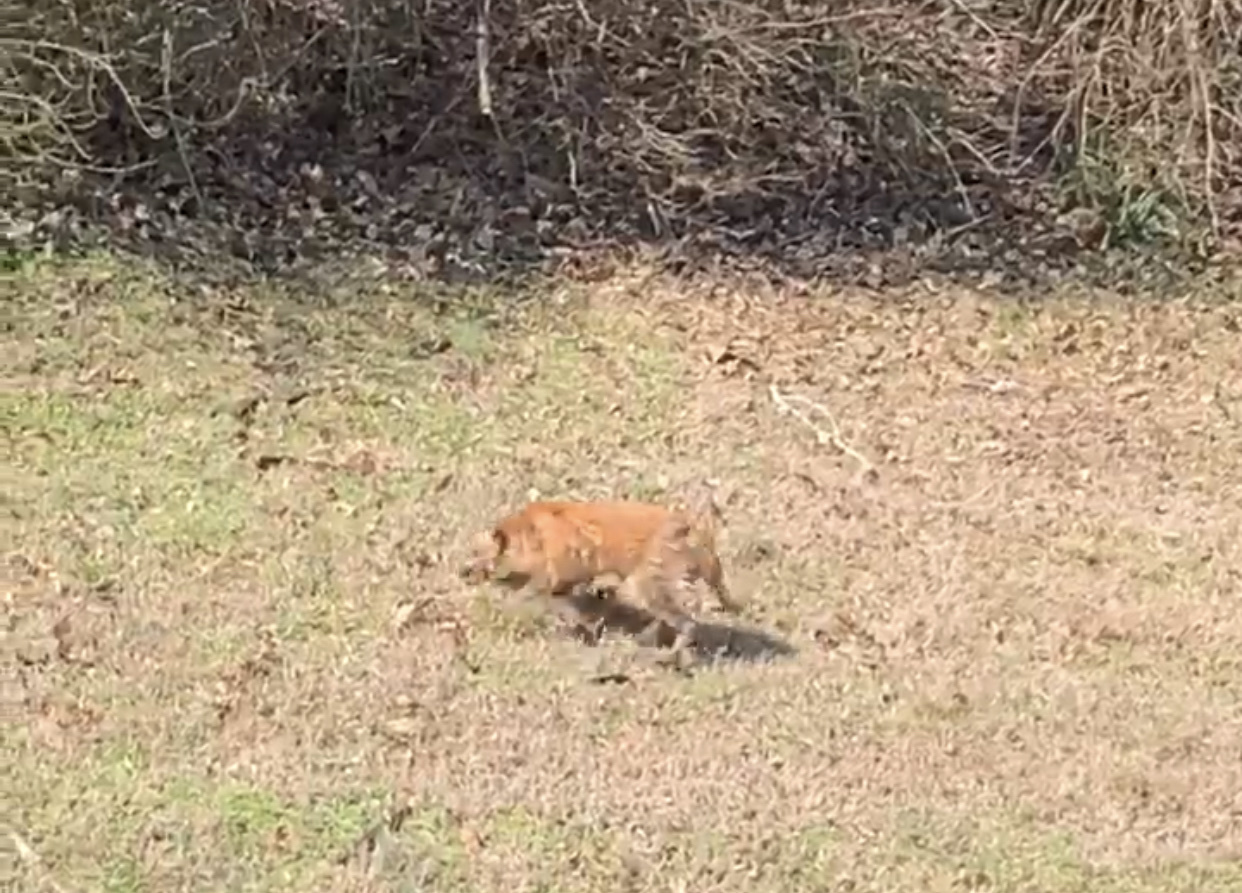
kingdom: Animalia
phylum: Chordata
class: Mammalia
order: Carnivora
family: Canidae
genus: Vulpes
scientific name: Vulpes vulpes
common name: Red fox
